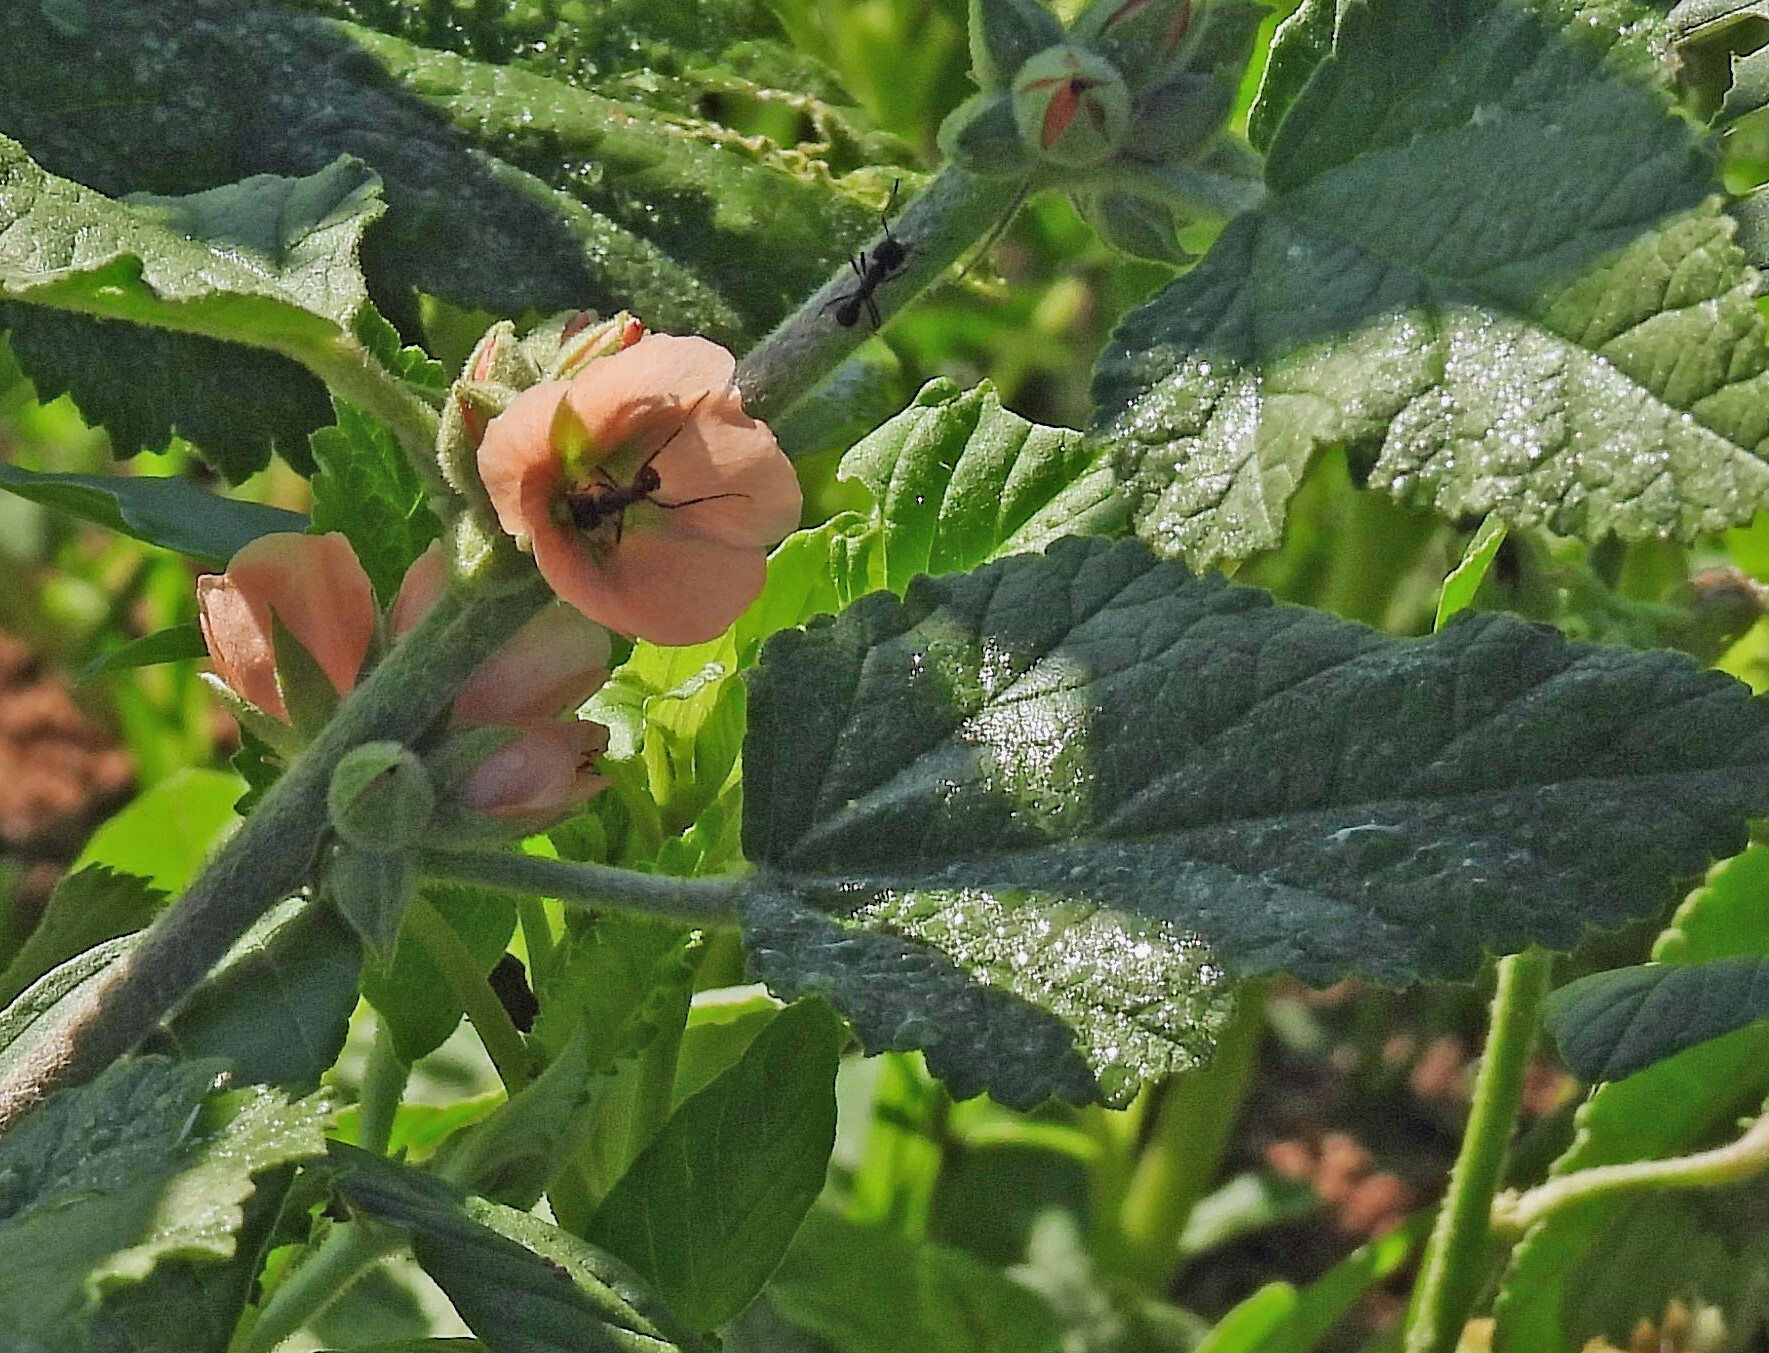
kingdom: Plantae
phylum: Tracheophyta
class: Magnoliopsida
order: Malvales
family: Malvaceae
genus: Sphaeralcea
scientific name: Sphaeralcea bonariensis
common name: Latin globemallow
